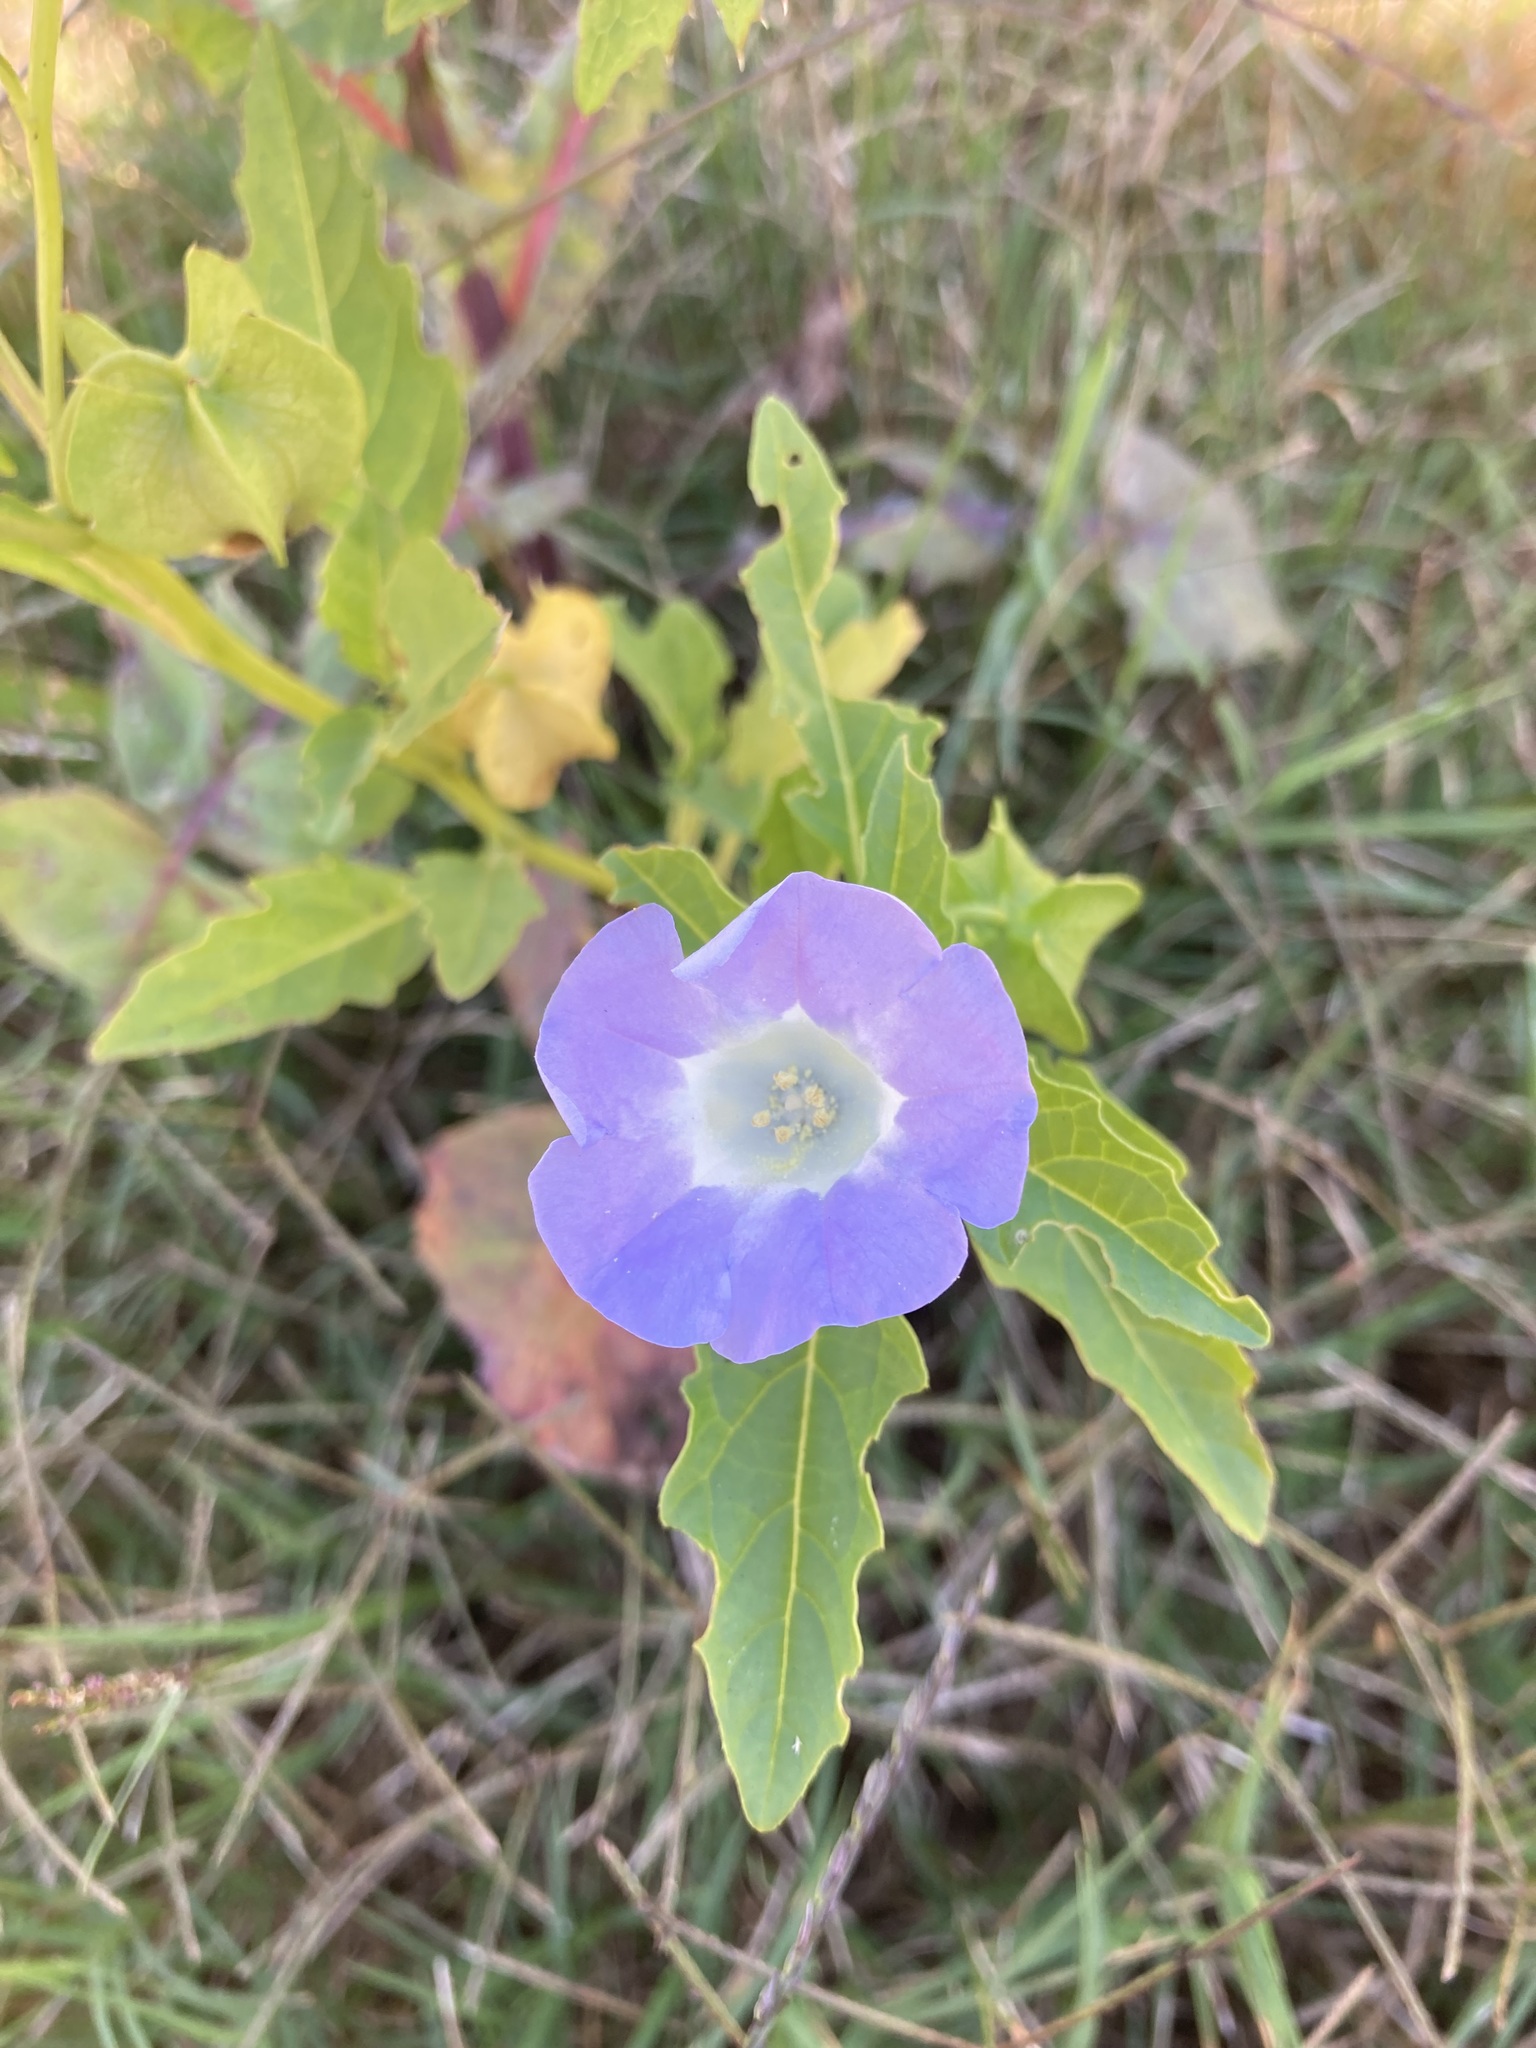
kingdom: Plantae
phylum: Tracheophyta
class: Magnoliopsida
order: Solanales
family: Solanaceae
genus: Nicandra
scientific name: Nicandra physalodes
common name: Apple-of-peru
